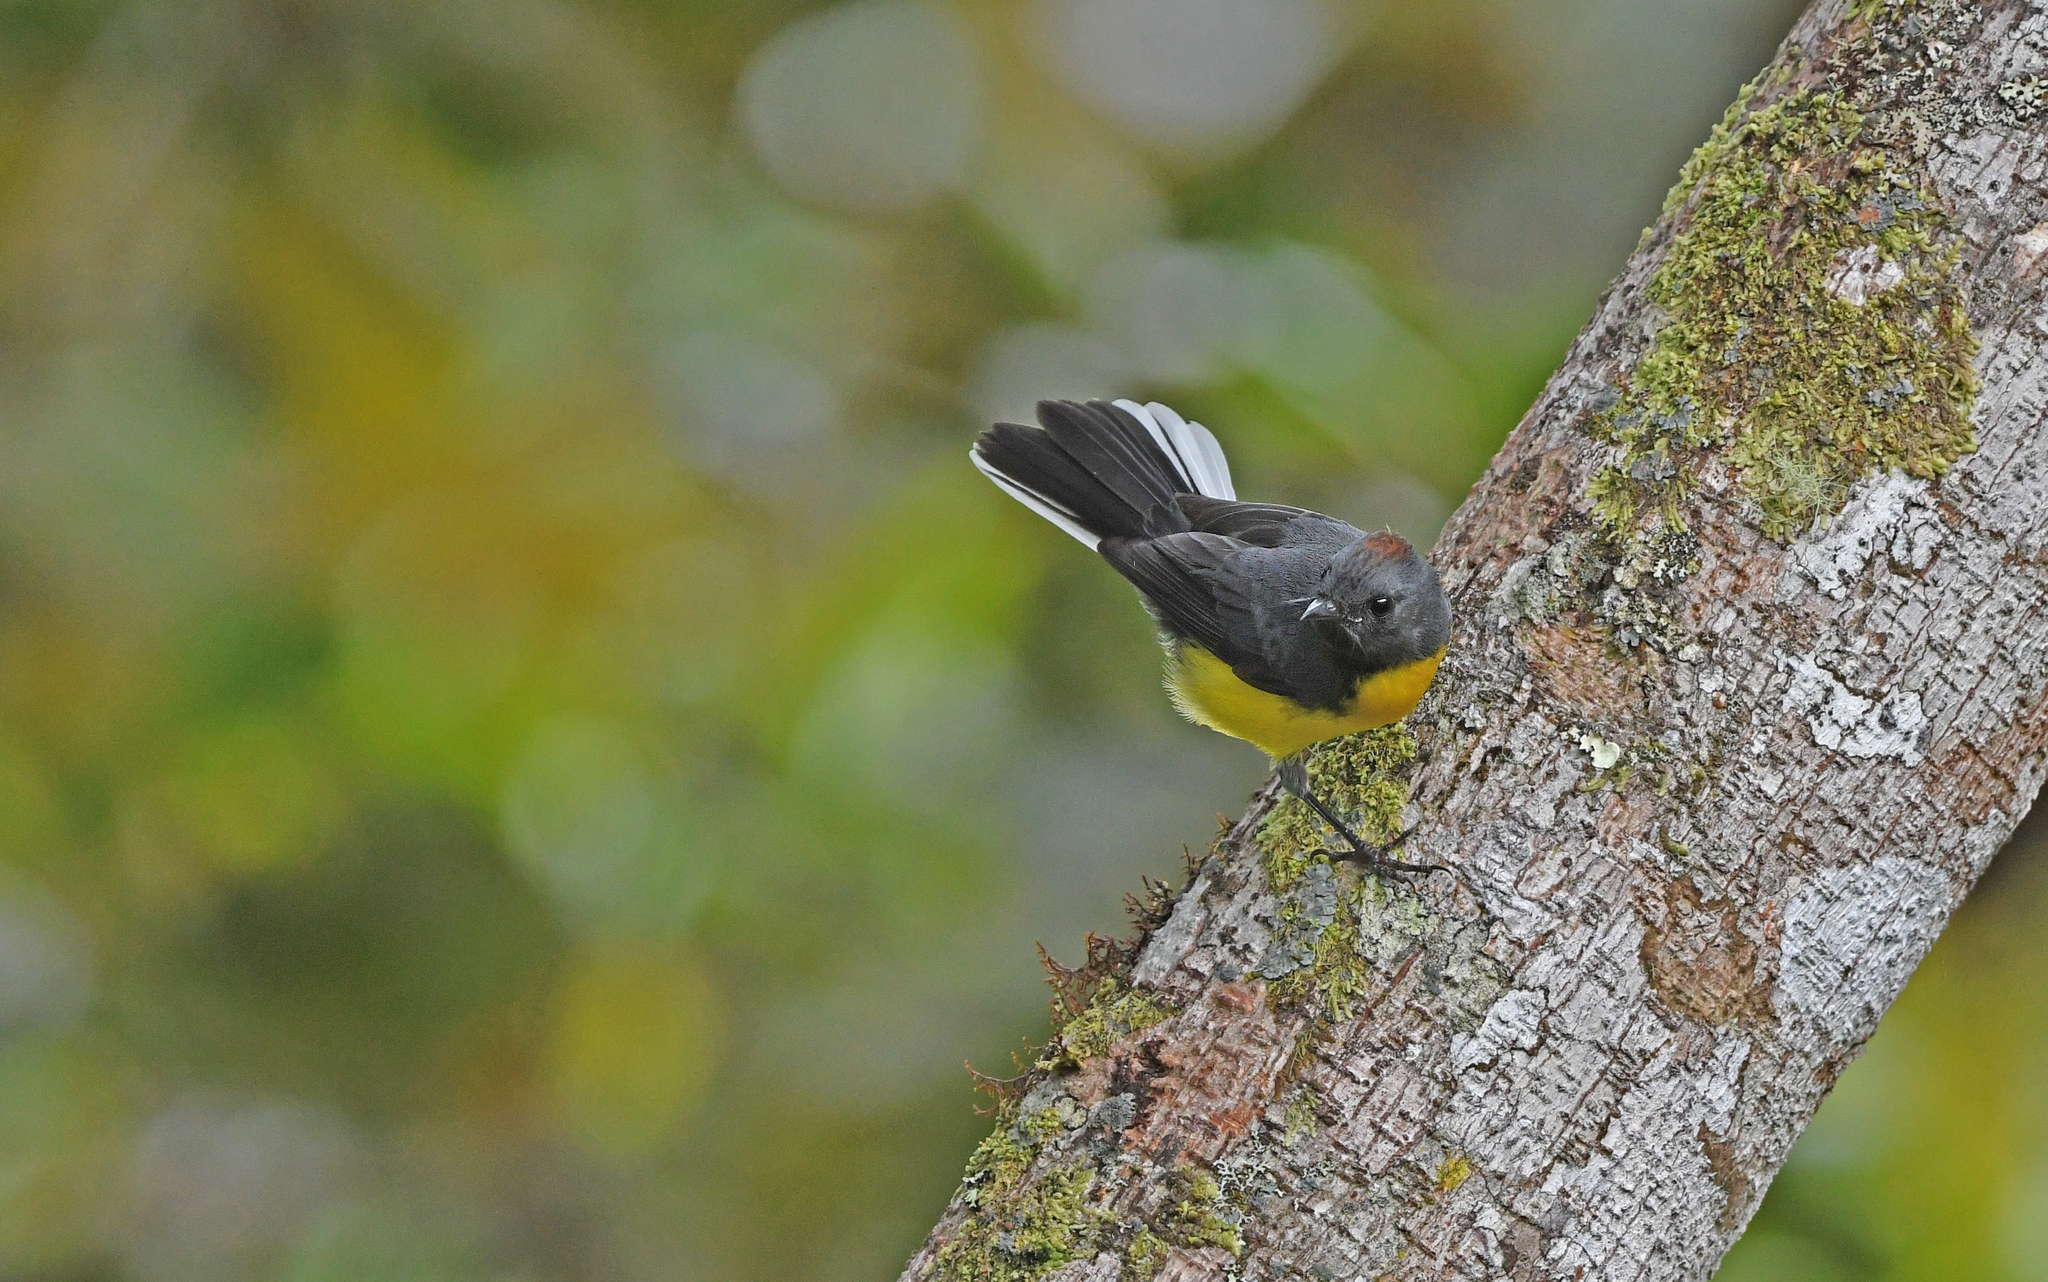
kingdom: Animalia
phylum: Chordata
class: Aves
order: Passeriformes
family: Parulidae
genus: Myioborus
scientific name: Myioborus miniatus
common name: Slate-throated redstart
